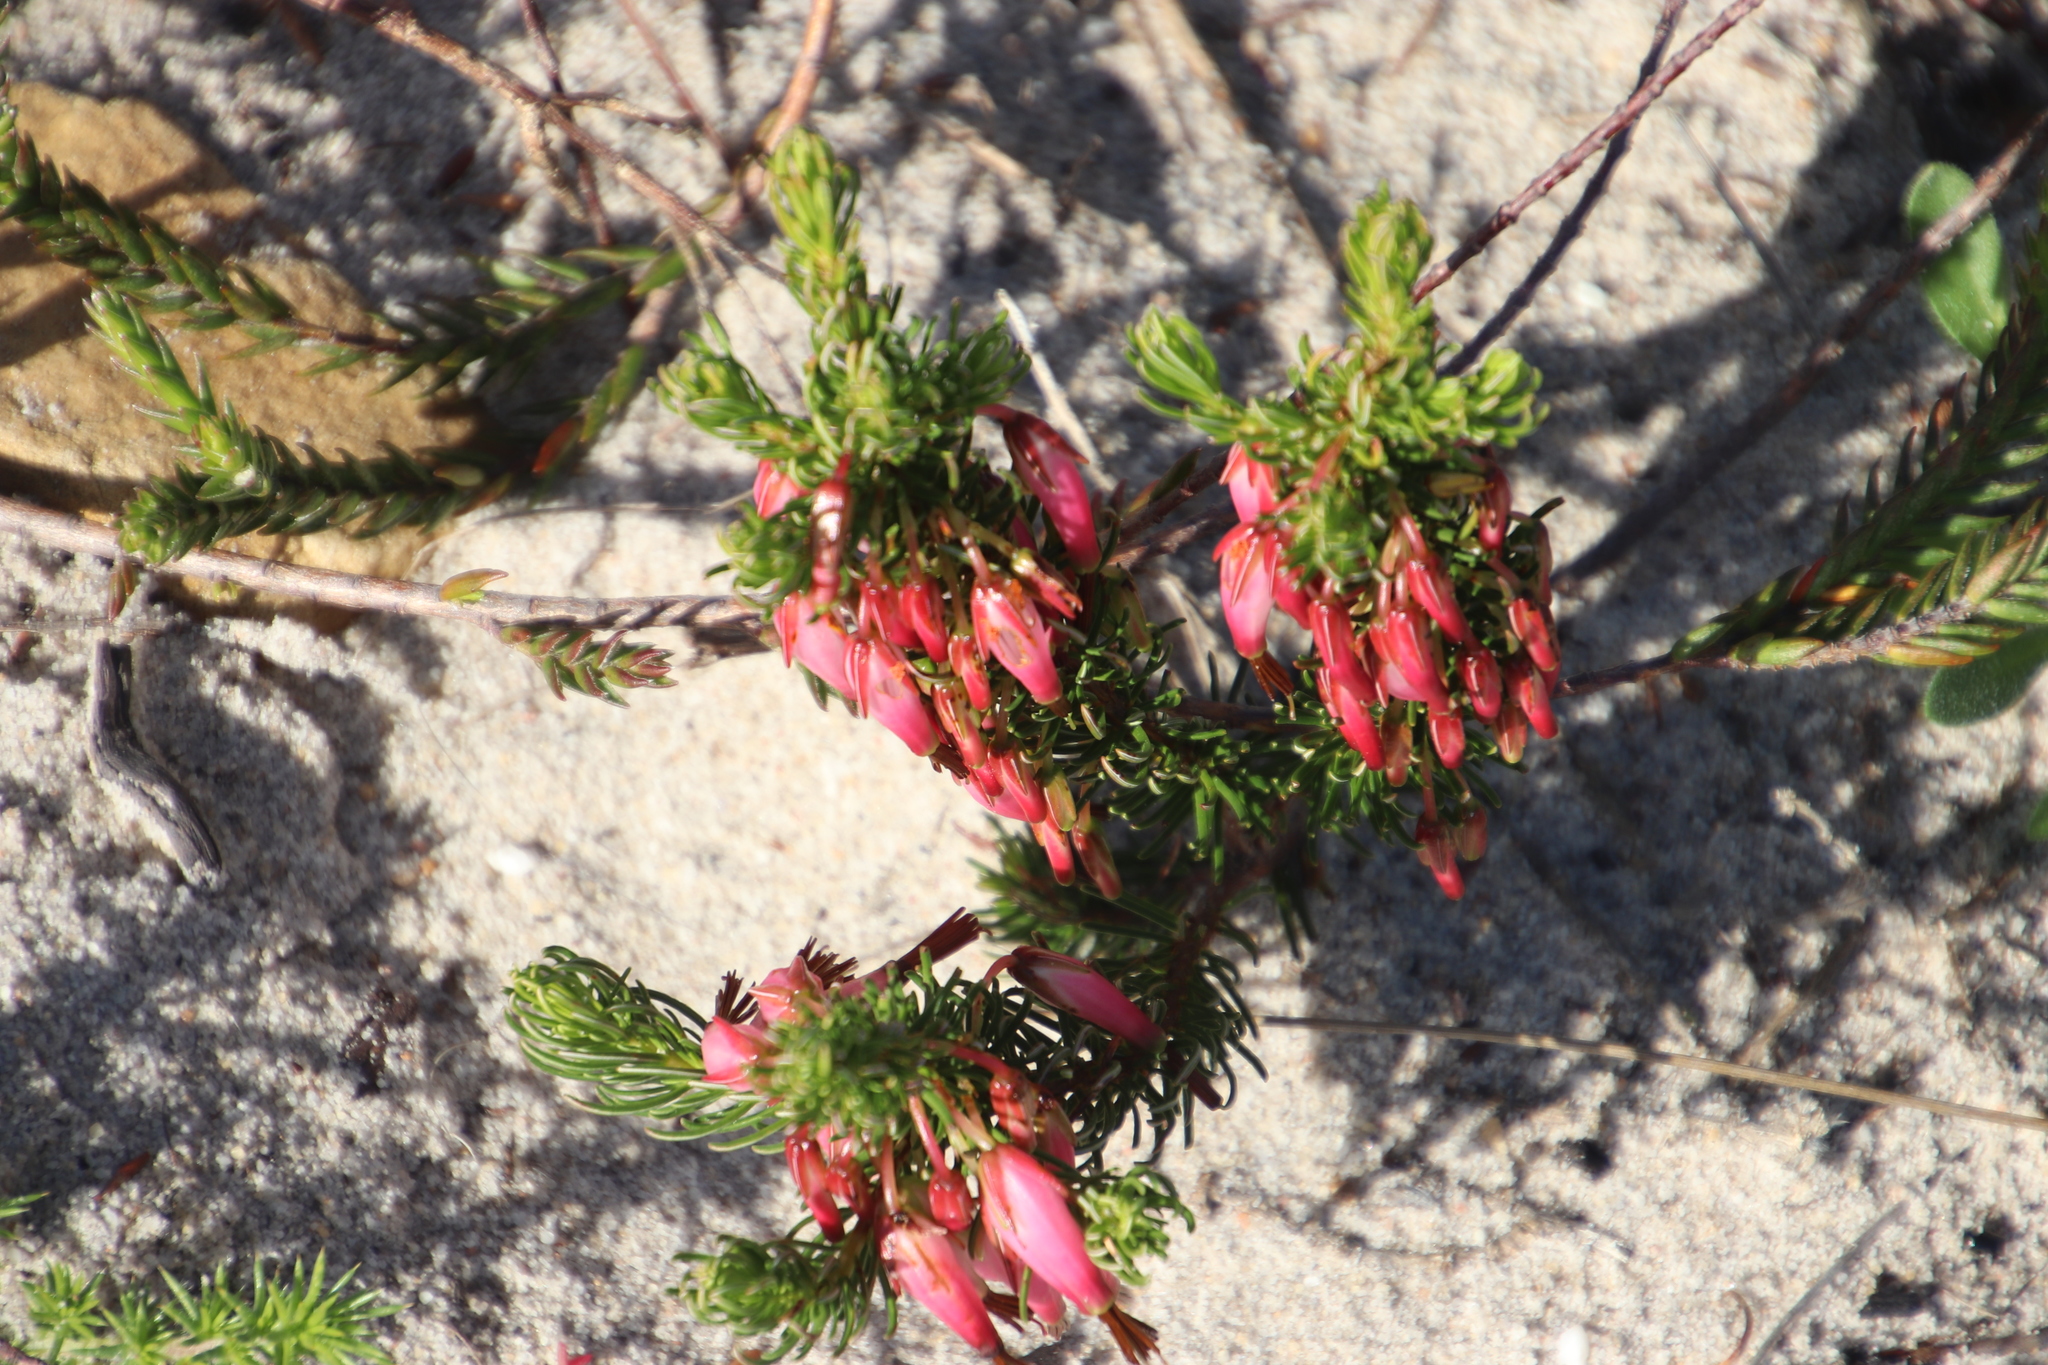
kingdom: Plantae
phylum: Tracheophyta
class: Magnoliopsida
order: Ericales
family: Ericaceae
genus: Erica
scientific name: Erica plukenetii
